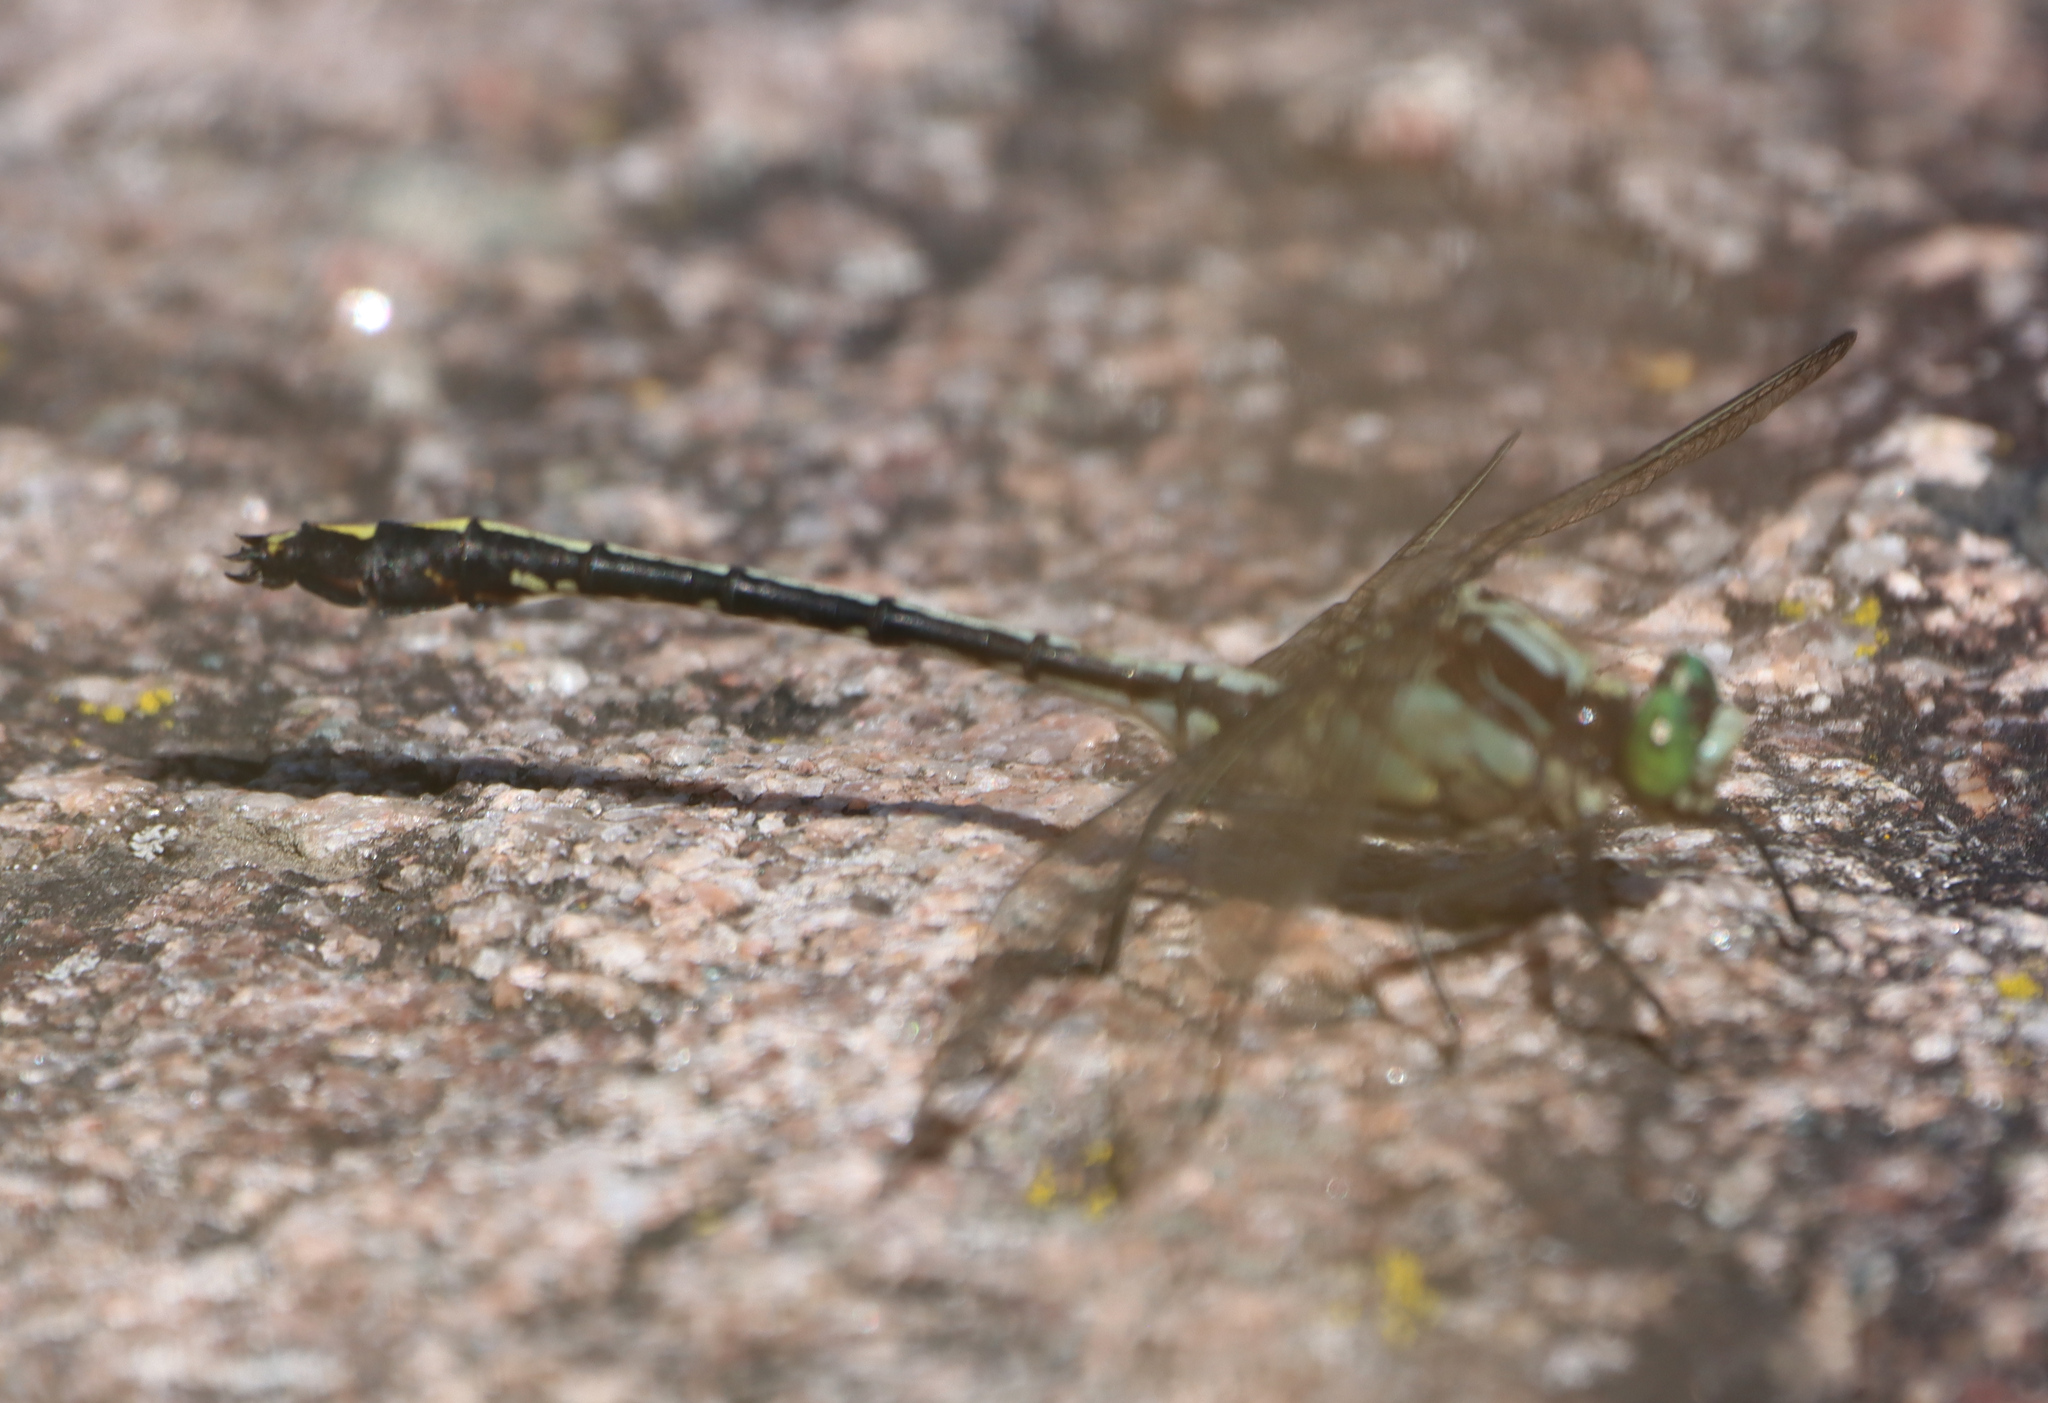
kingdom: Animalia
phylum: Arthropoda
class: Insecta
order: Odonata
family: Gomphidae
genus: Dromogomphus
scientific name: Dromogomphus spinosus
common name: Black-shouldered spinyleg
